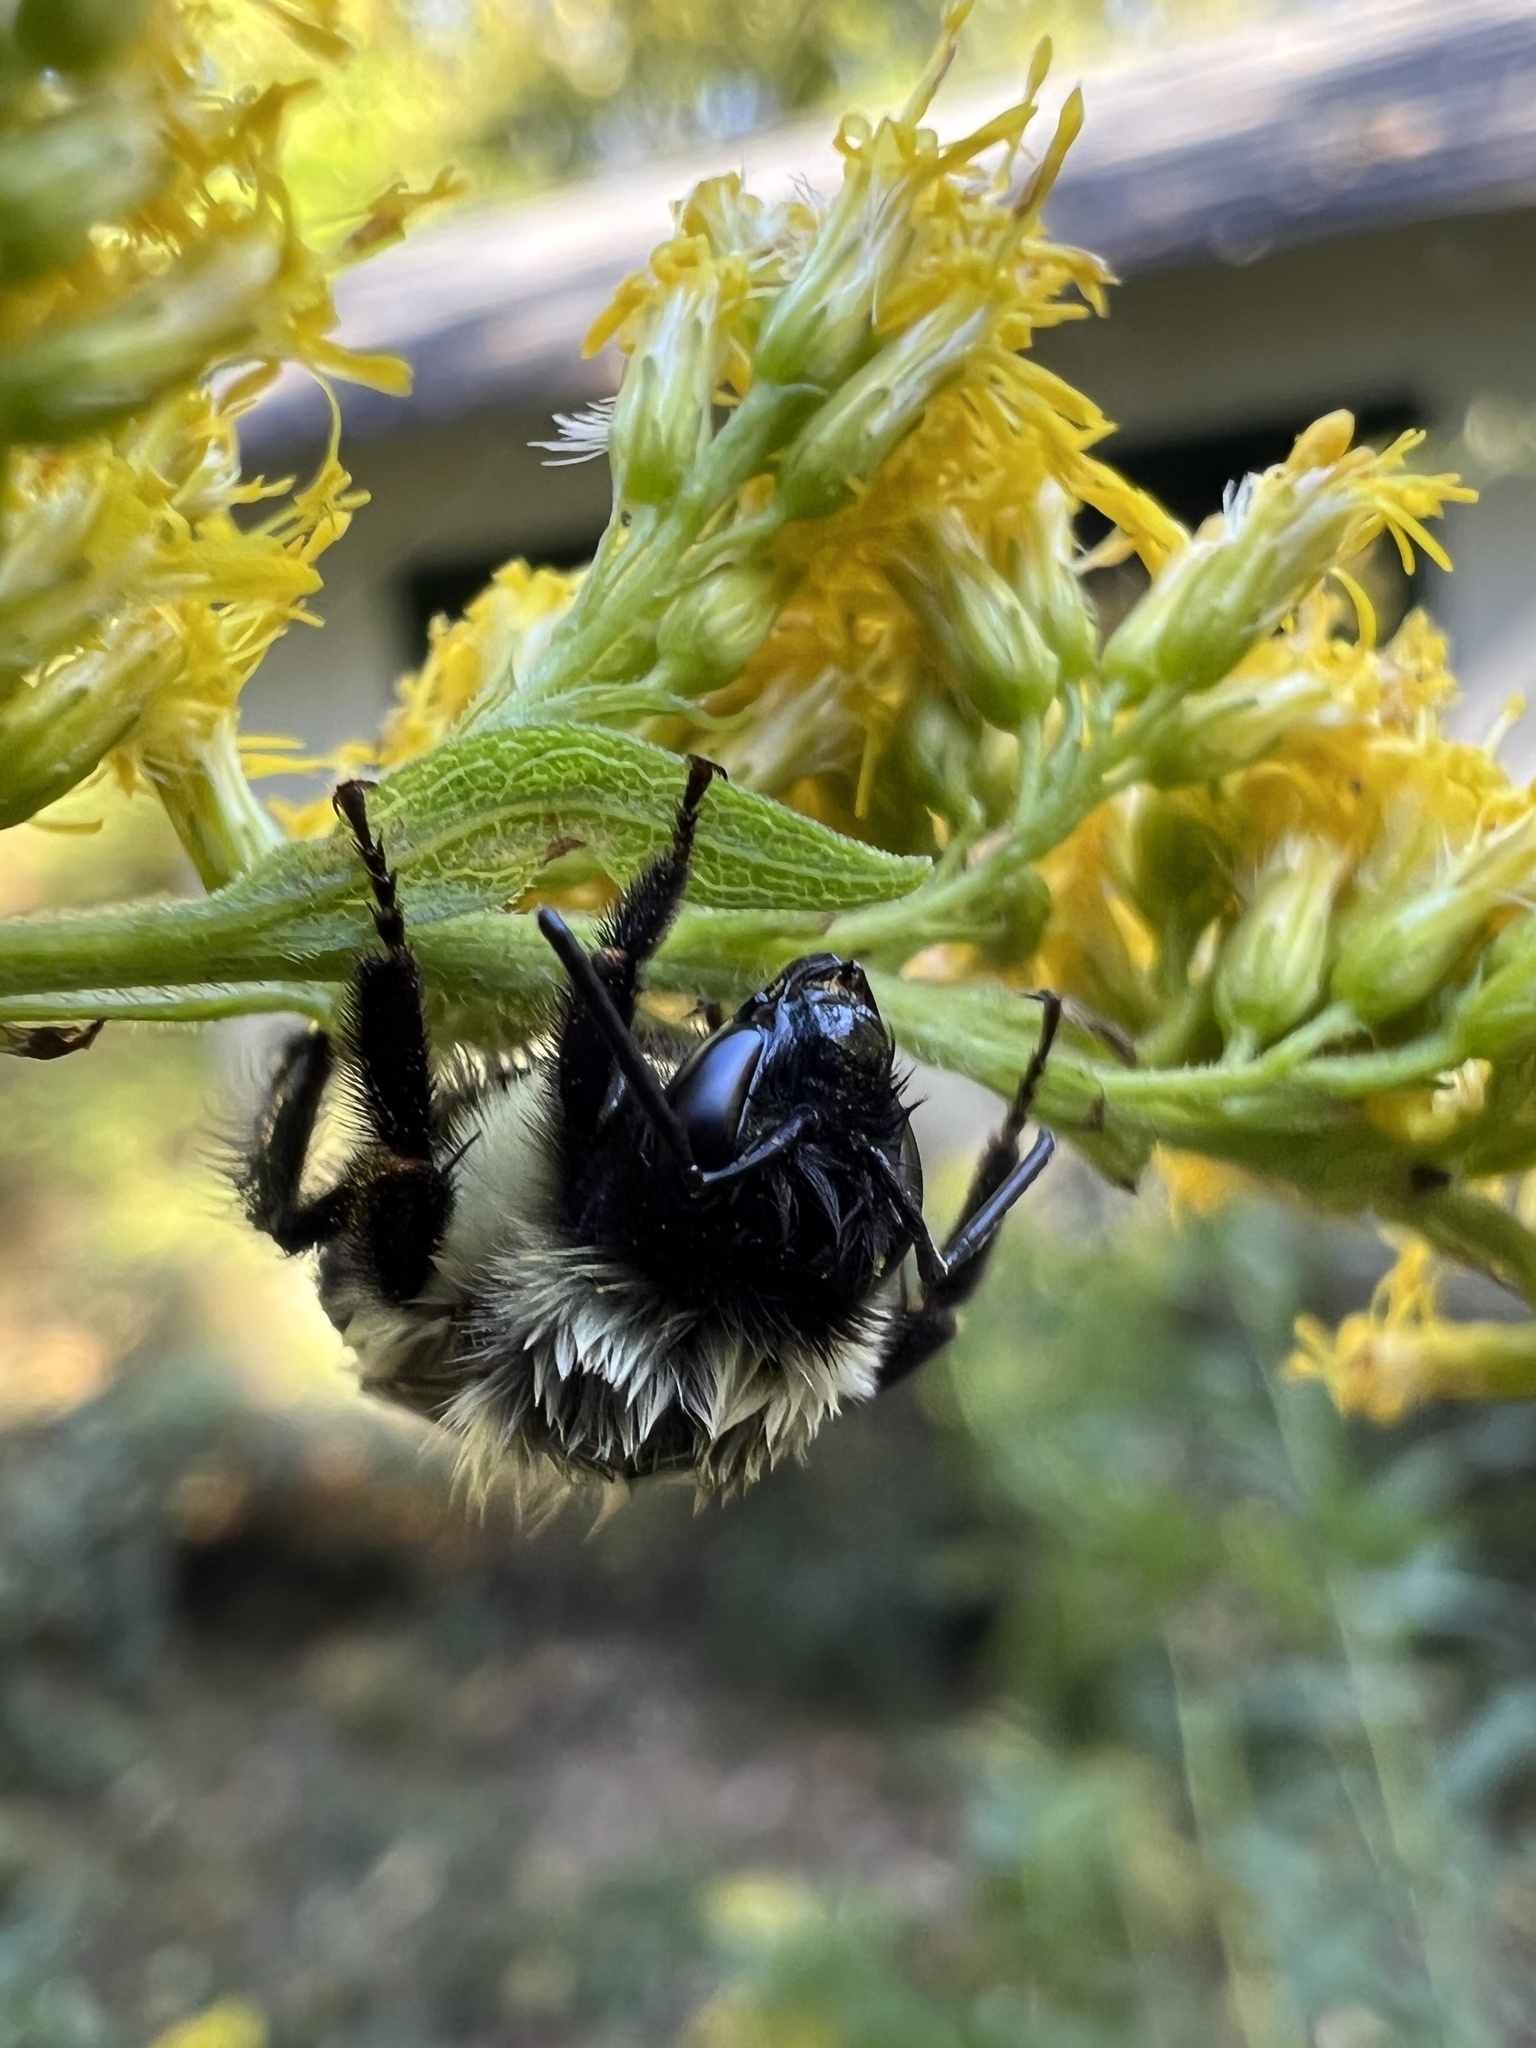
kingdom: Animalia
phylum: Arthropoda
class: Insecta
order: Hymenoptera
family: Apidae
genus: Bombus
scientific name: Bombus impatiens
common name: Common eastern bumble bee
